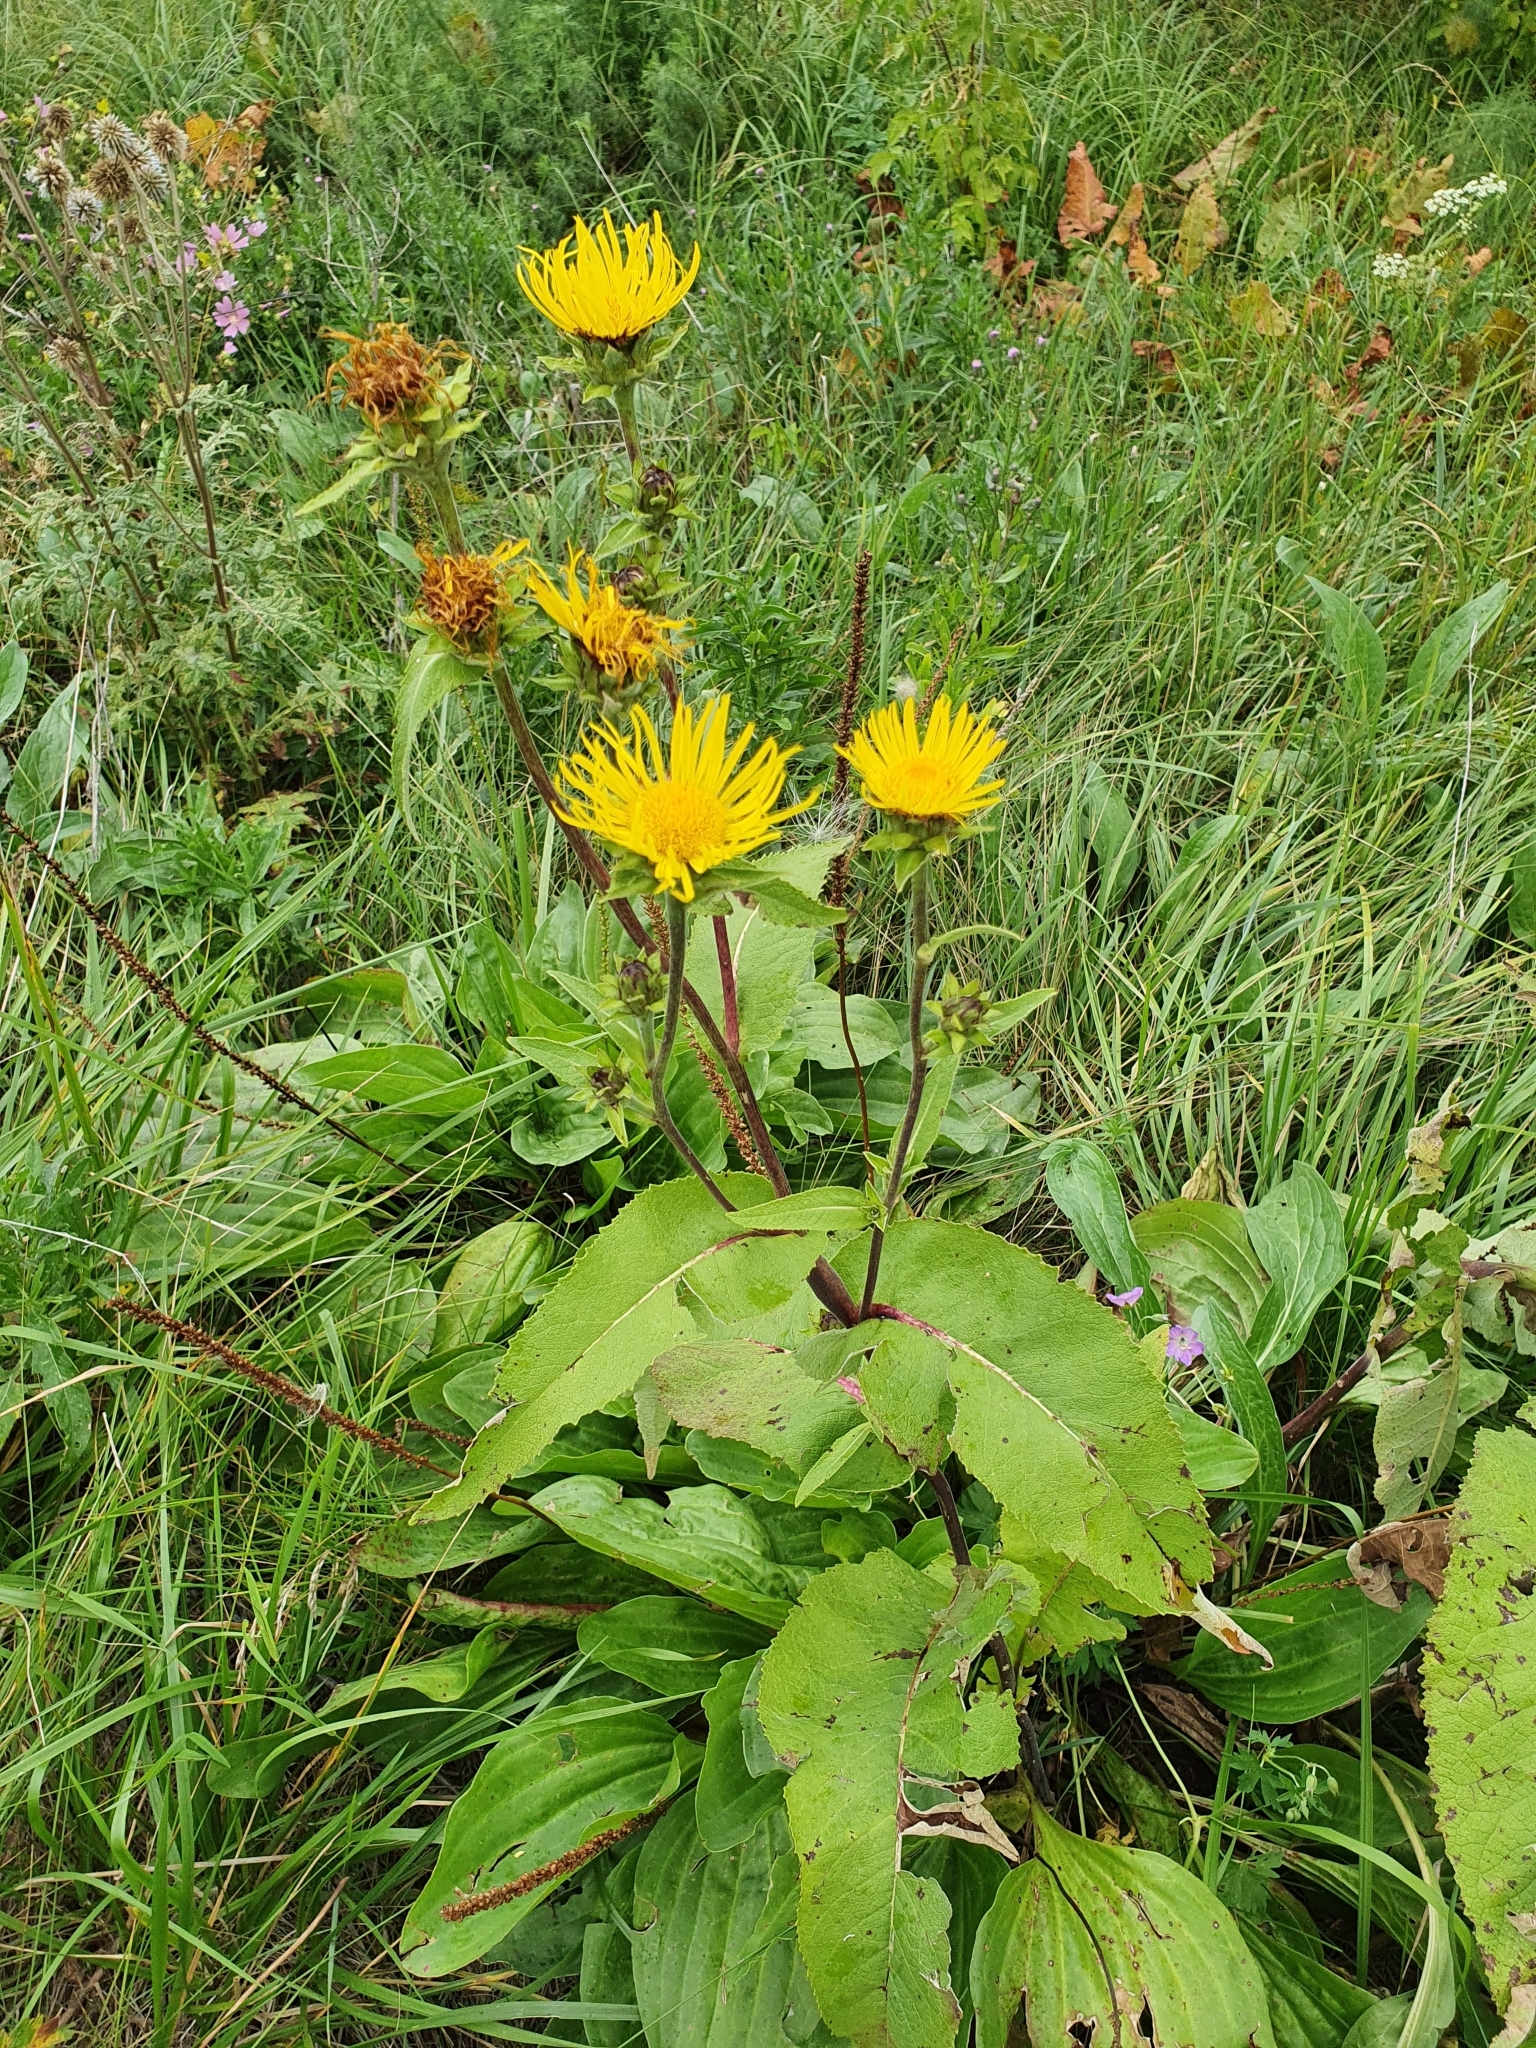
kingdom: Plantae
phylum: Tracheophyta
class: Magnoliopsida
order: Asterales
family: Asteraceae
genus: Inula
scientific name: Inula helenium
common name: Elecampane
